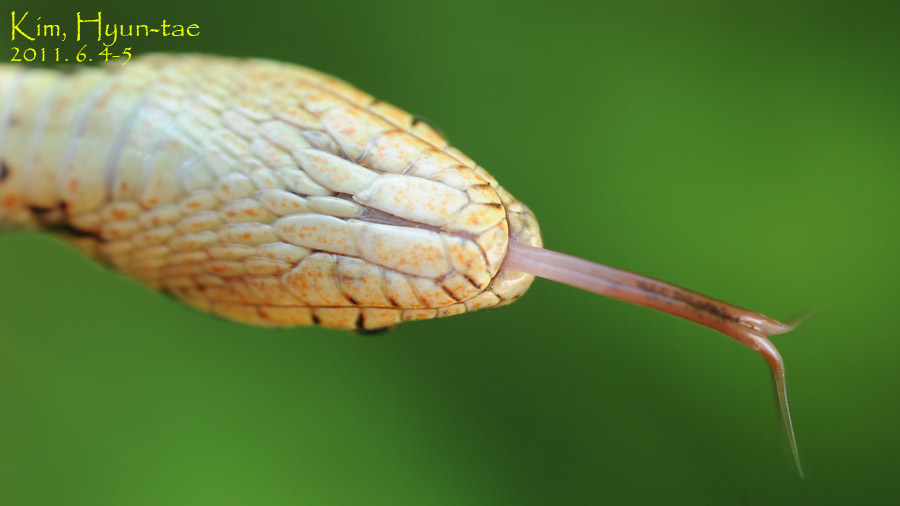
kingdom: Animalia
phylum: Chordata
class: Squamata
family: Colubridae
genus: Elaphe
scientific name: Elaphe dione
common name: Dione ratsnake
